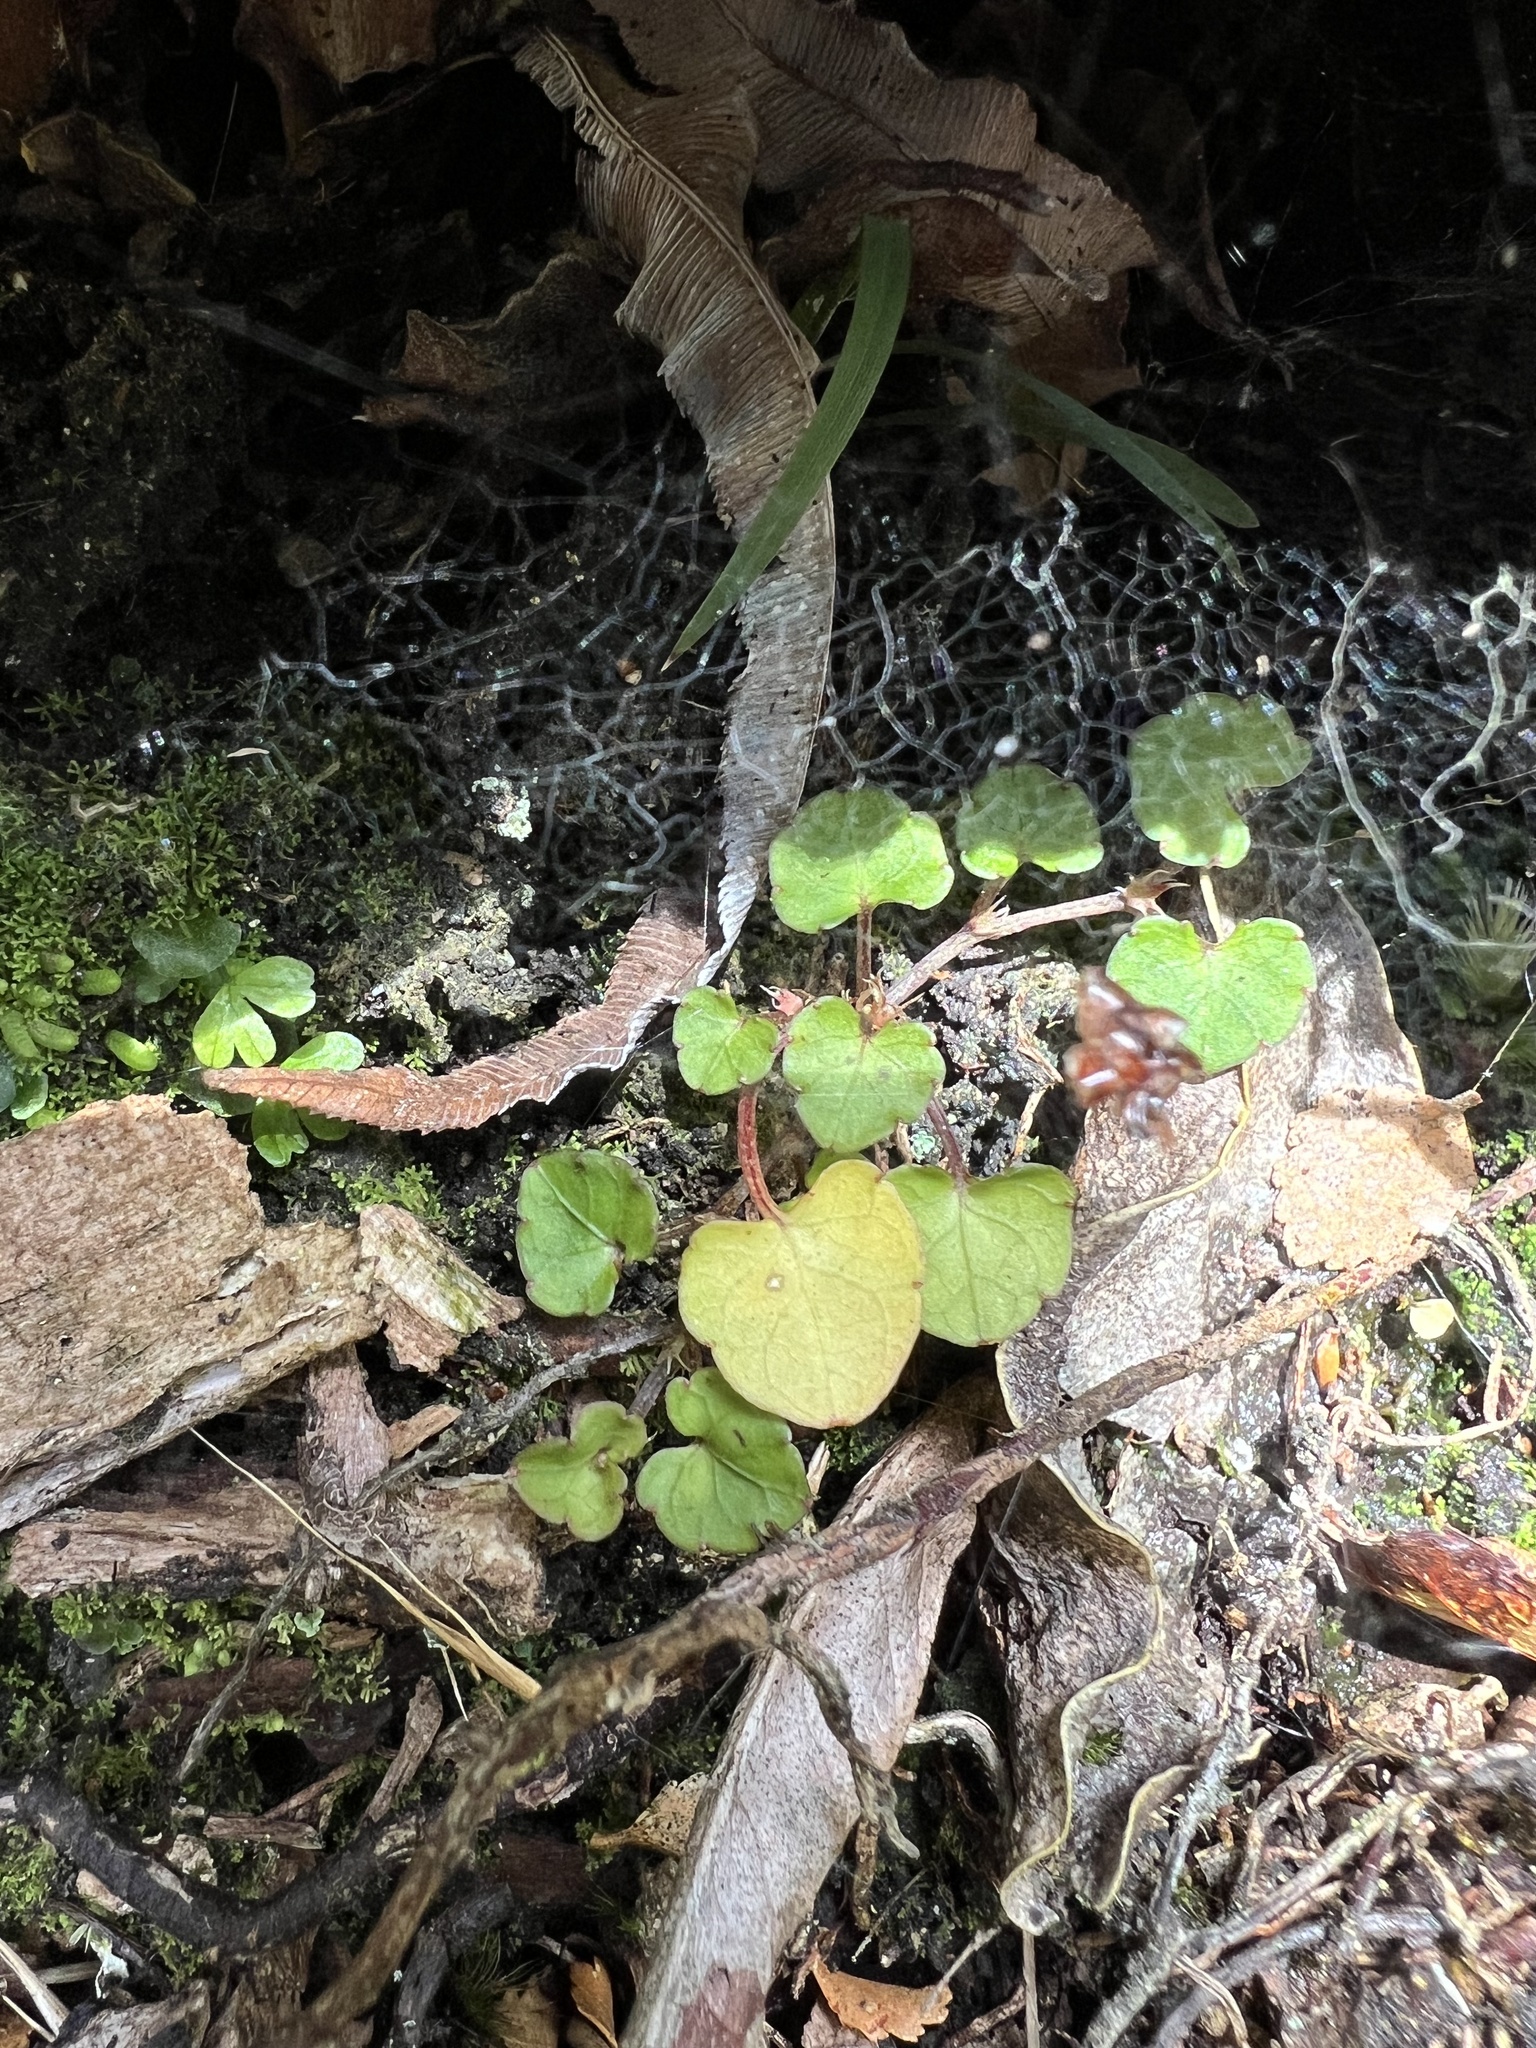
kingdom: Plantae
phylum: Tracheophyta
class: Magnoliopsida
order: Malpighiales
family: Violaceae
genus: Viola
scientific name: Viola filicaulis
